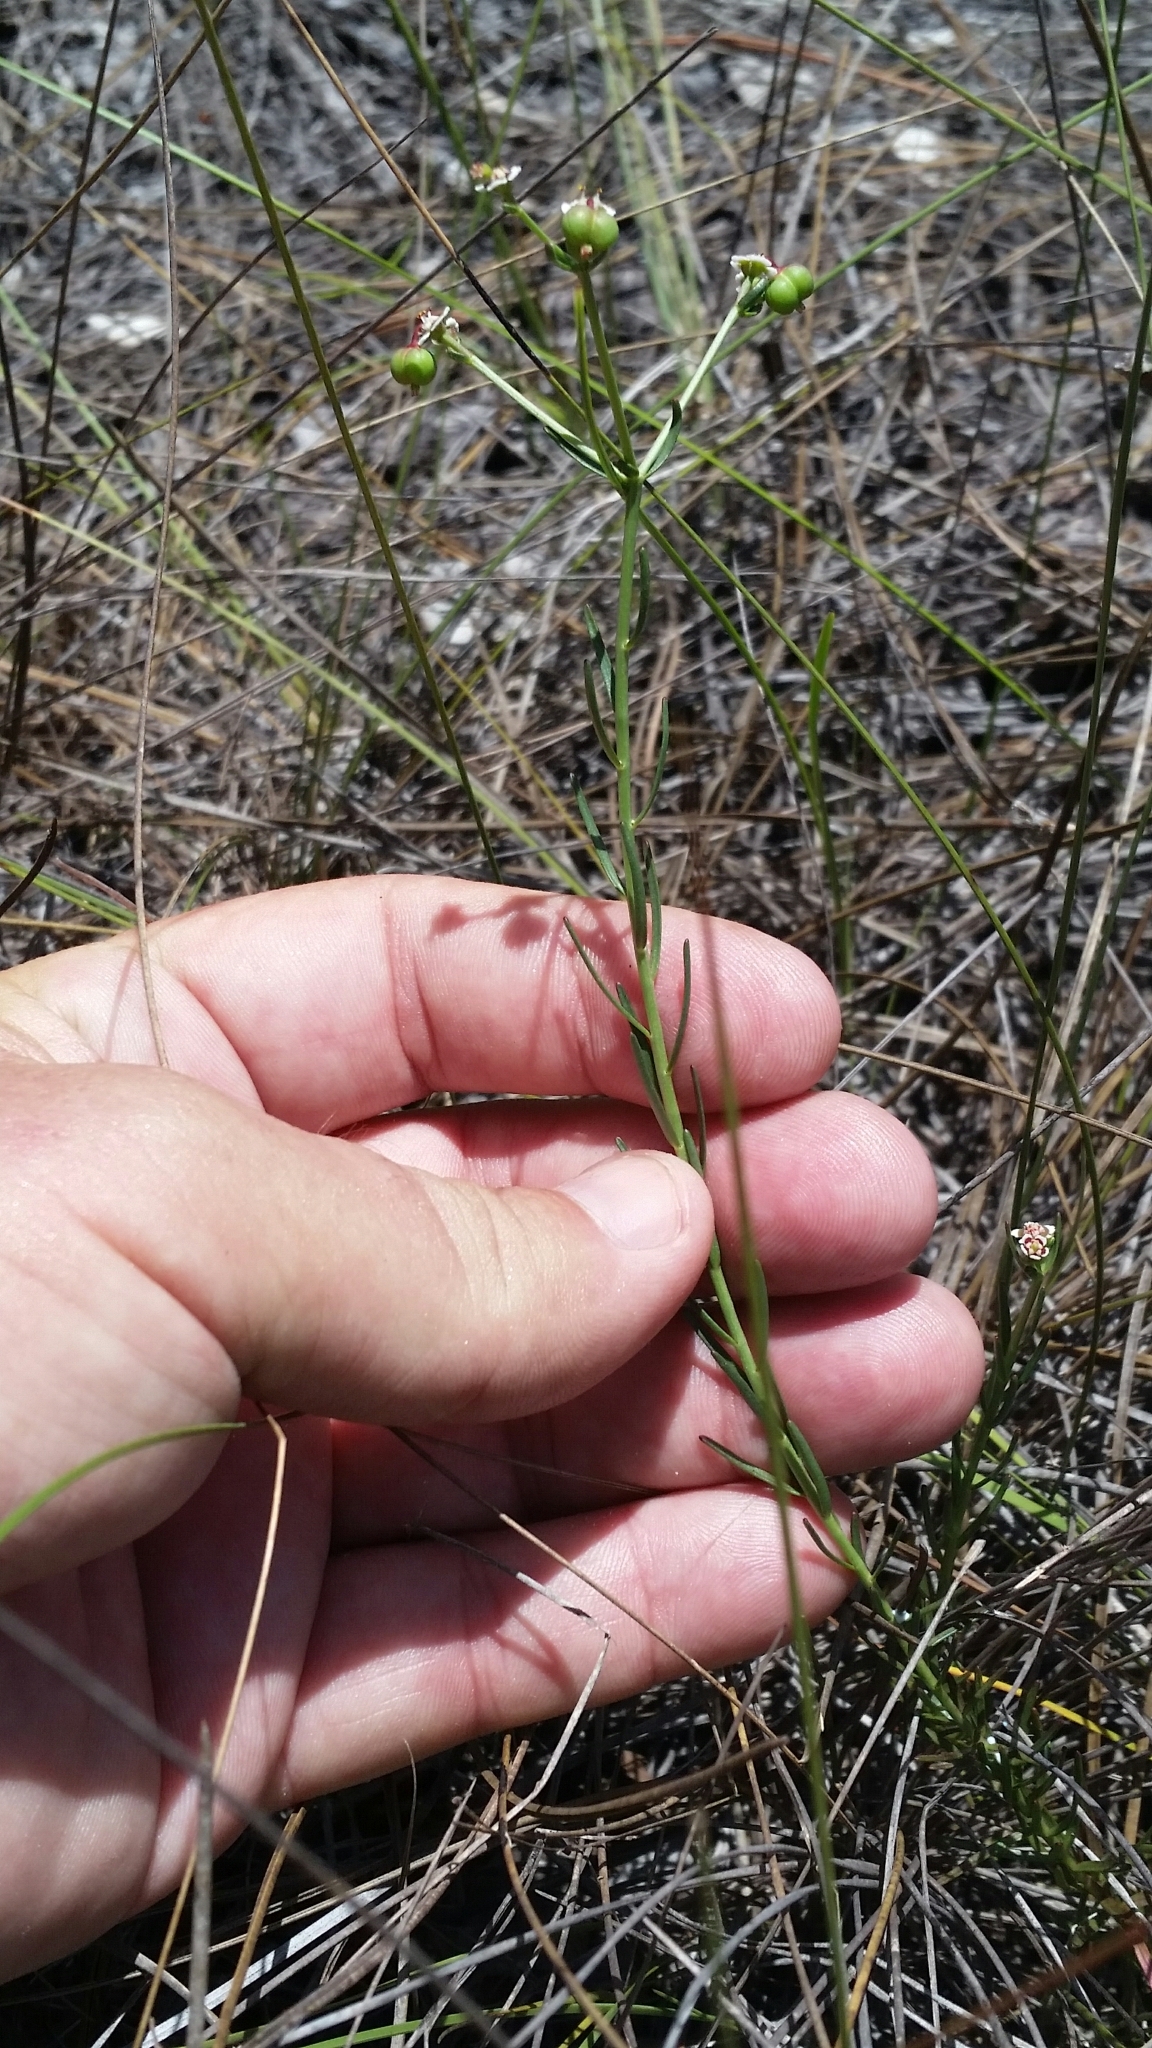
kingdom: Plantae
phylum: Tracheophyta
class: Magnoliopsida
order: Malpighiales
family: Euphorbiaceae
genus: Euphorbia
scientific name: Euphorbia polyphylla
